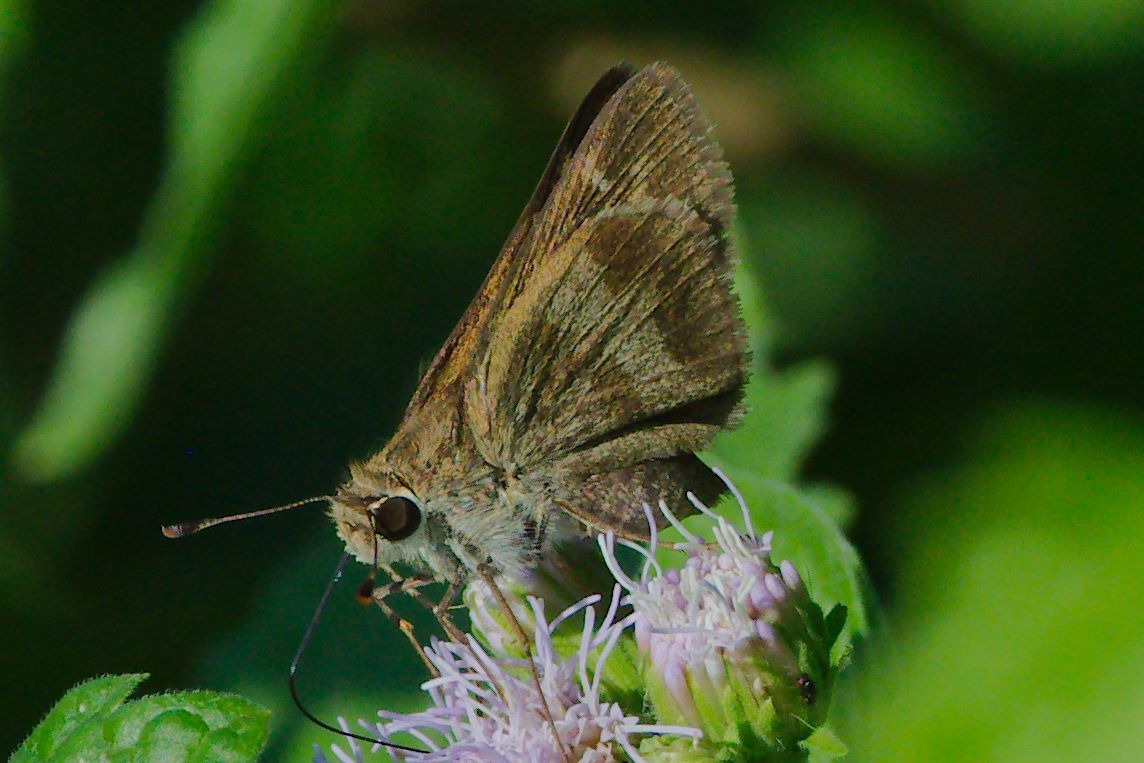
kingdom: Animalia
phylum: Arthropoda
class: Insecta
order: Lepidoptera
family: Hesperiidae
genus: Polites
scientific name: Polites vibex
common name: Whirlabout
